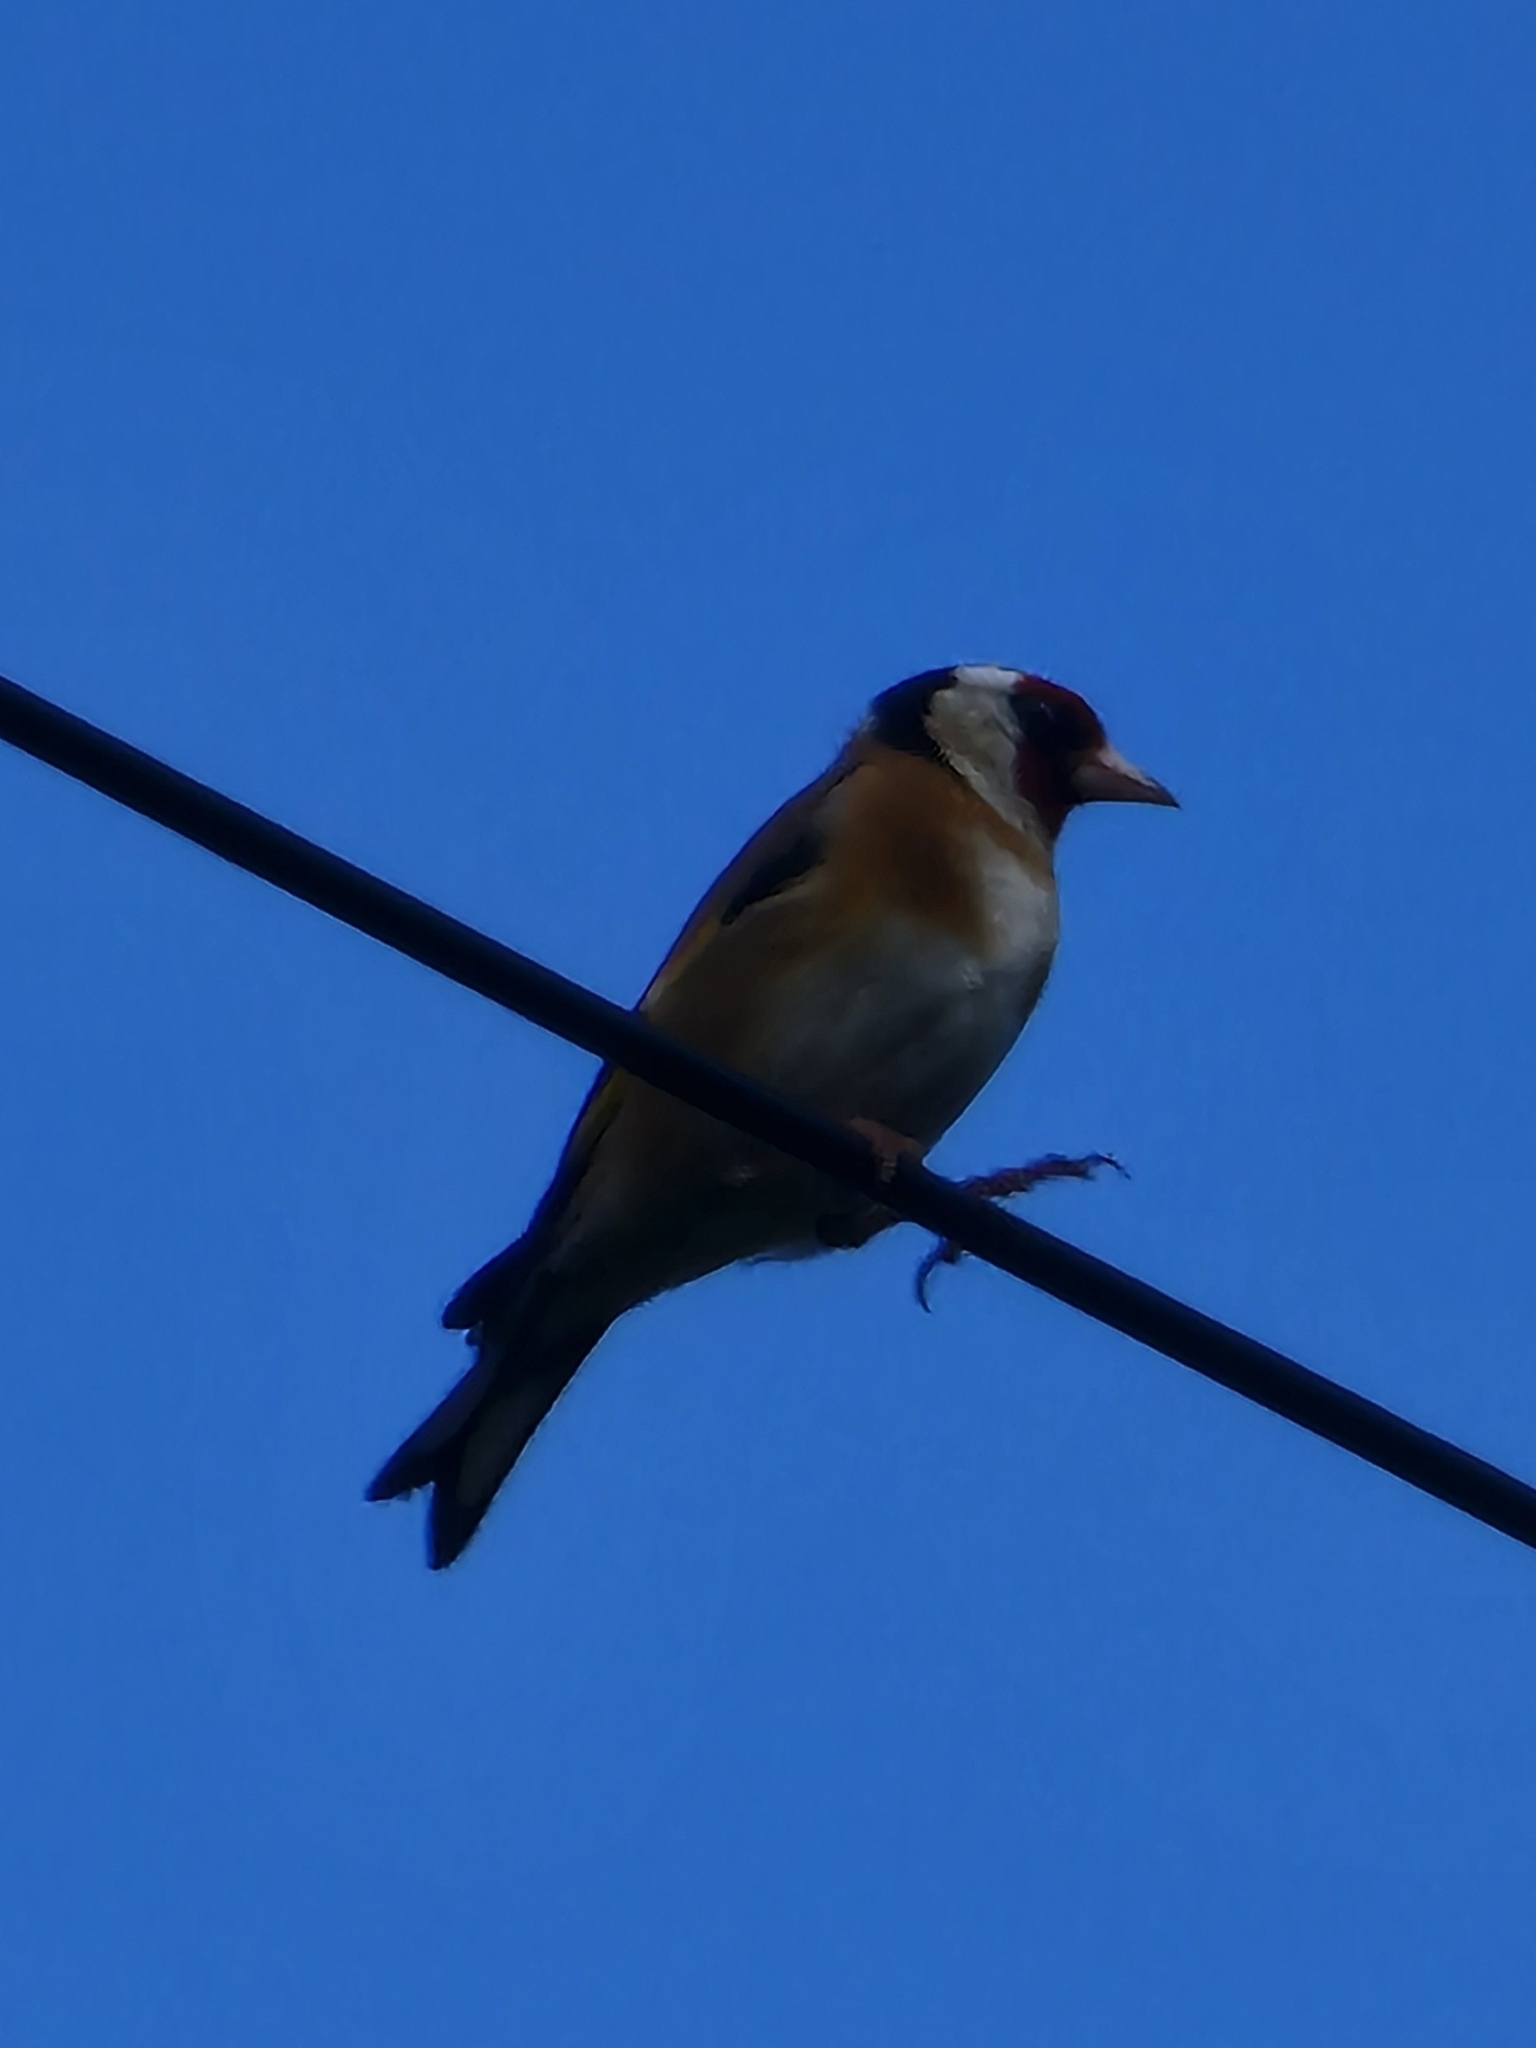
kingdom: Animalia
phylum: Chordata
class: Aves
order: Passeriformes
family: Fringillidae
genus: Carduelis
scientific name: Carduelis carduelis
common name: European goldfinch
